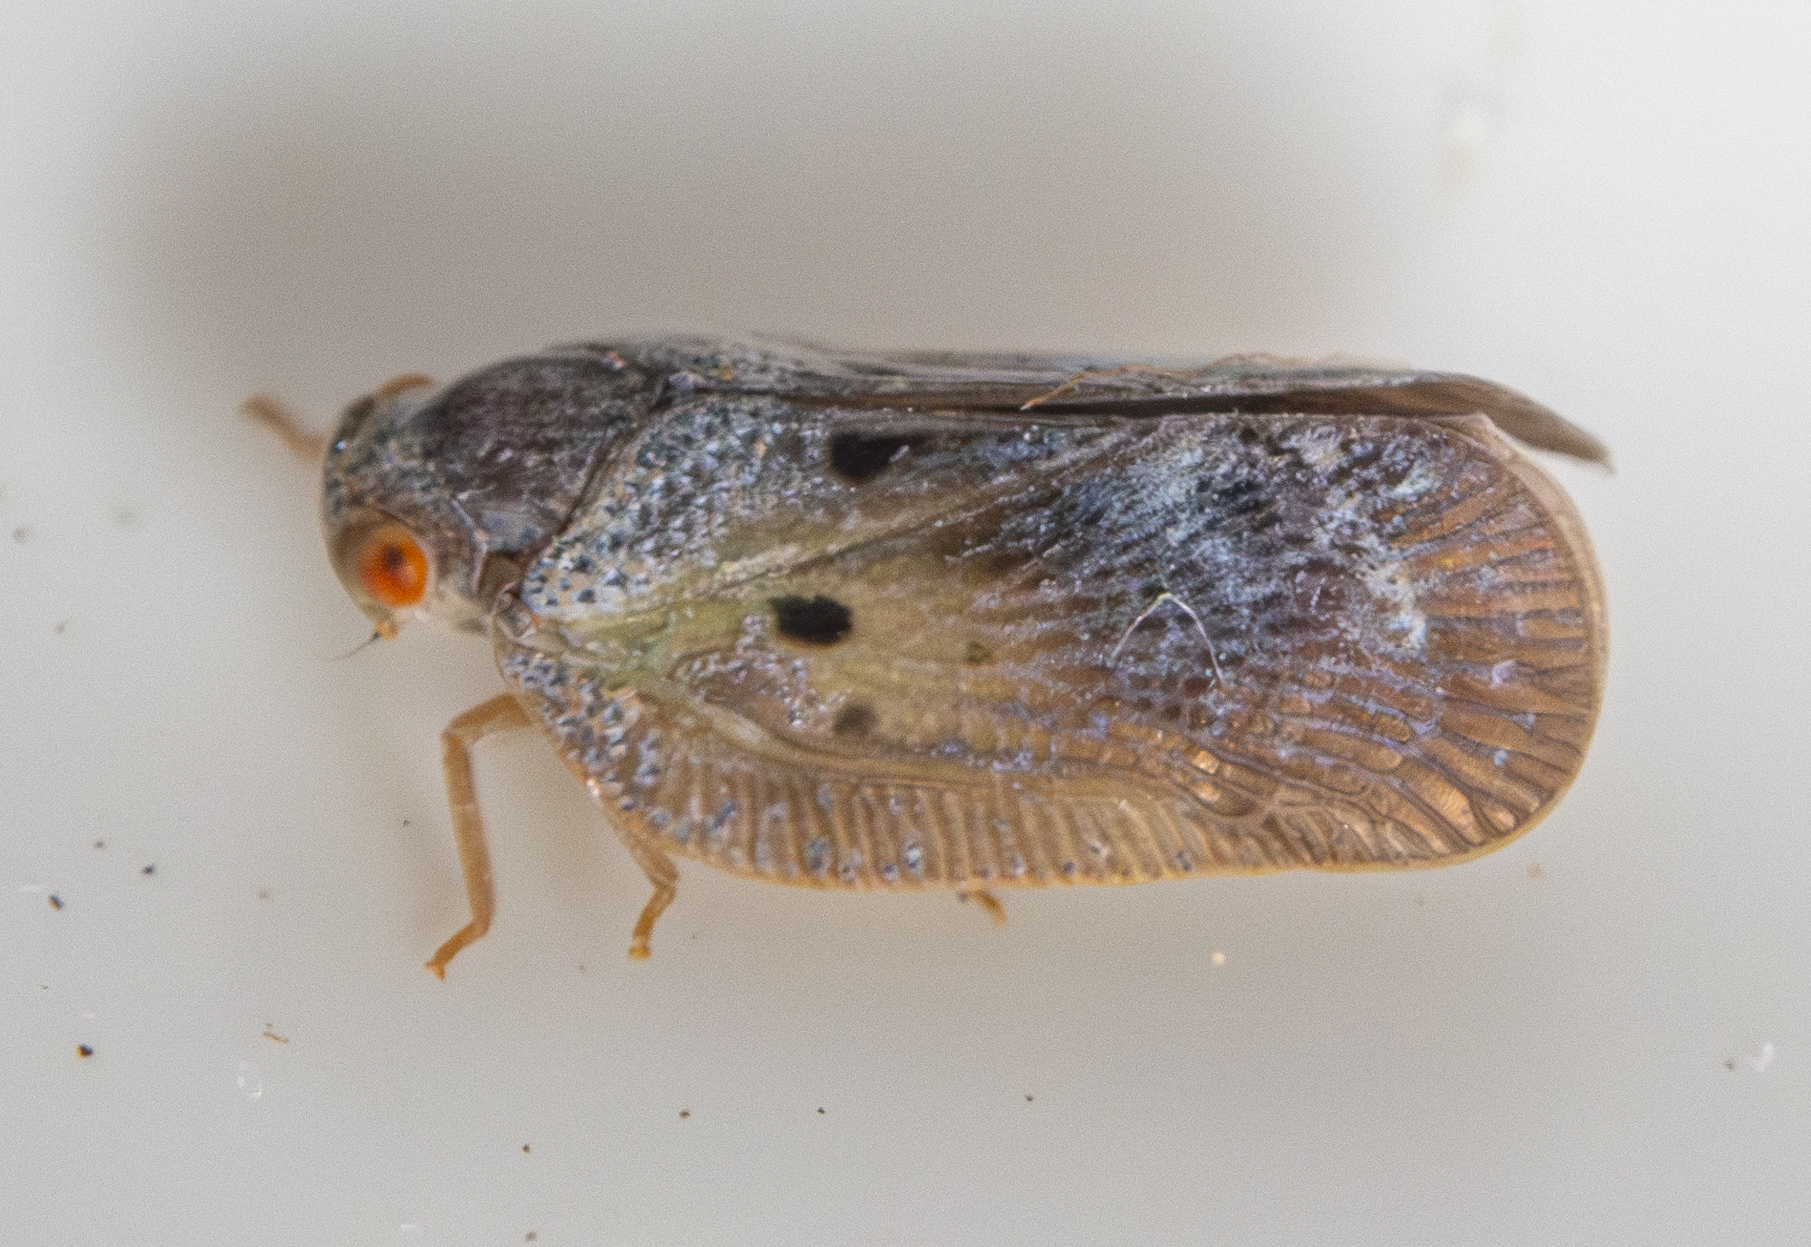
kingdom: Animalia
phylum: Arthropoda
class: Insecta
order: Hemiptera
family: Flatidae
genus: Melormenis
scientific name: Melormenis basalis
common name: Puerto rican planthopper
